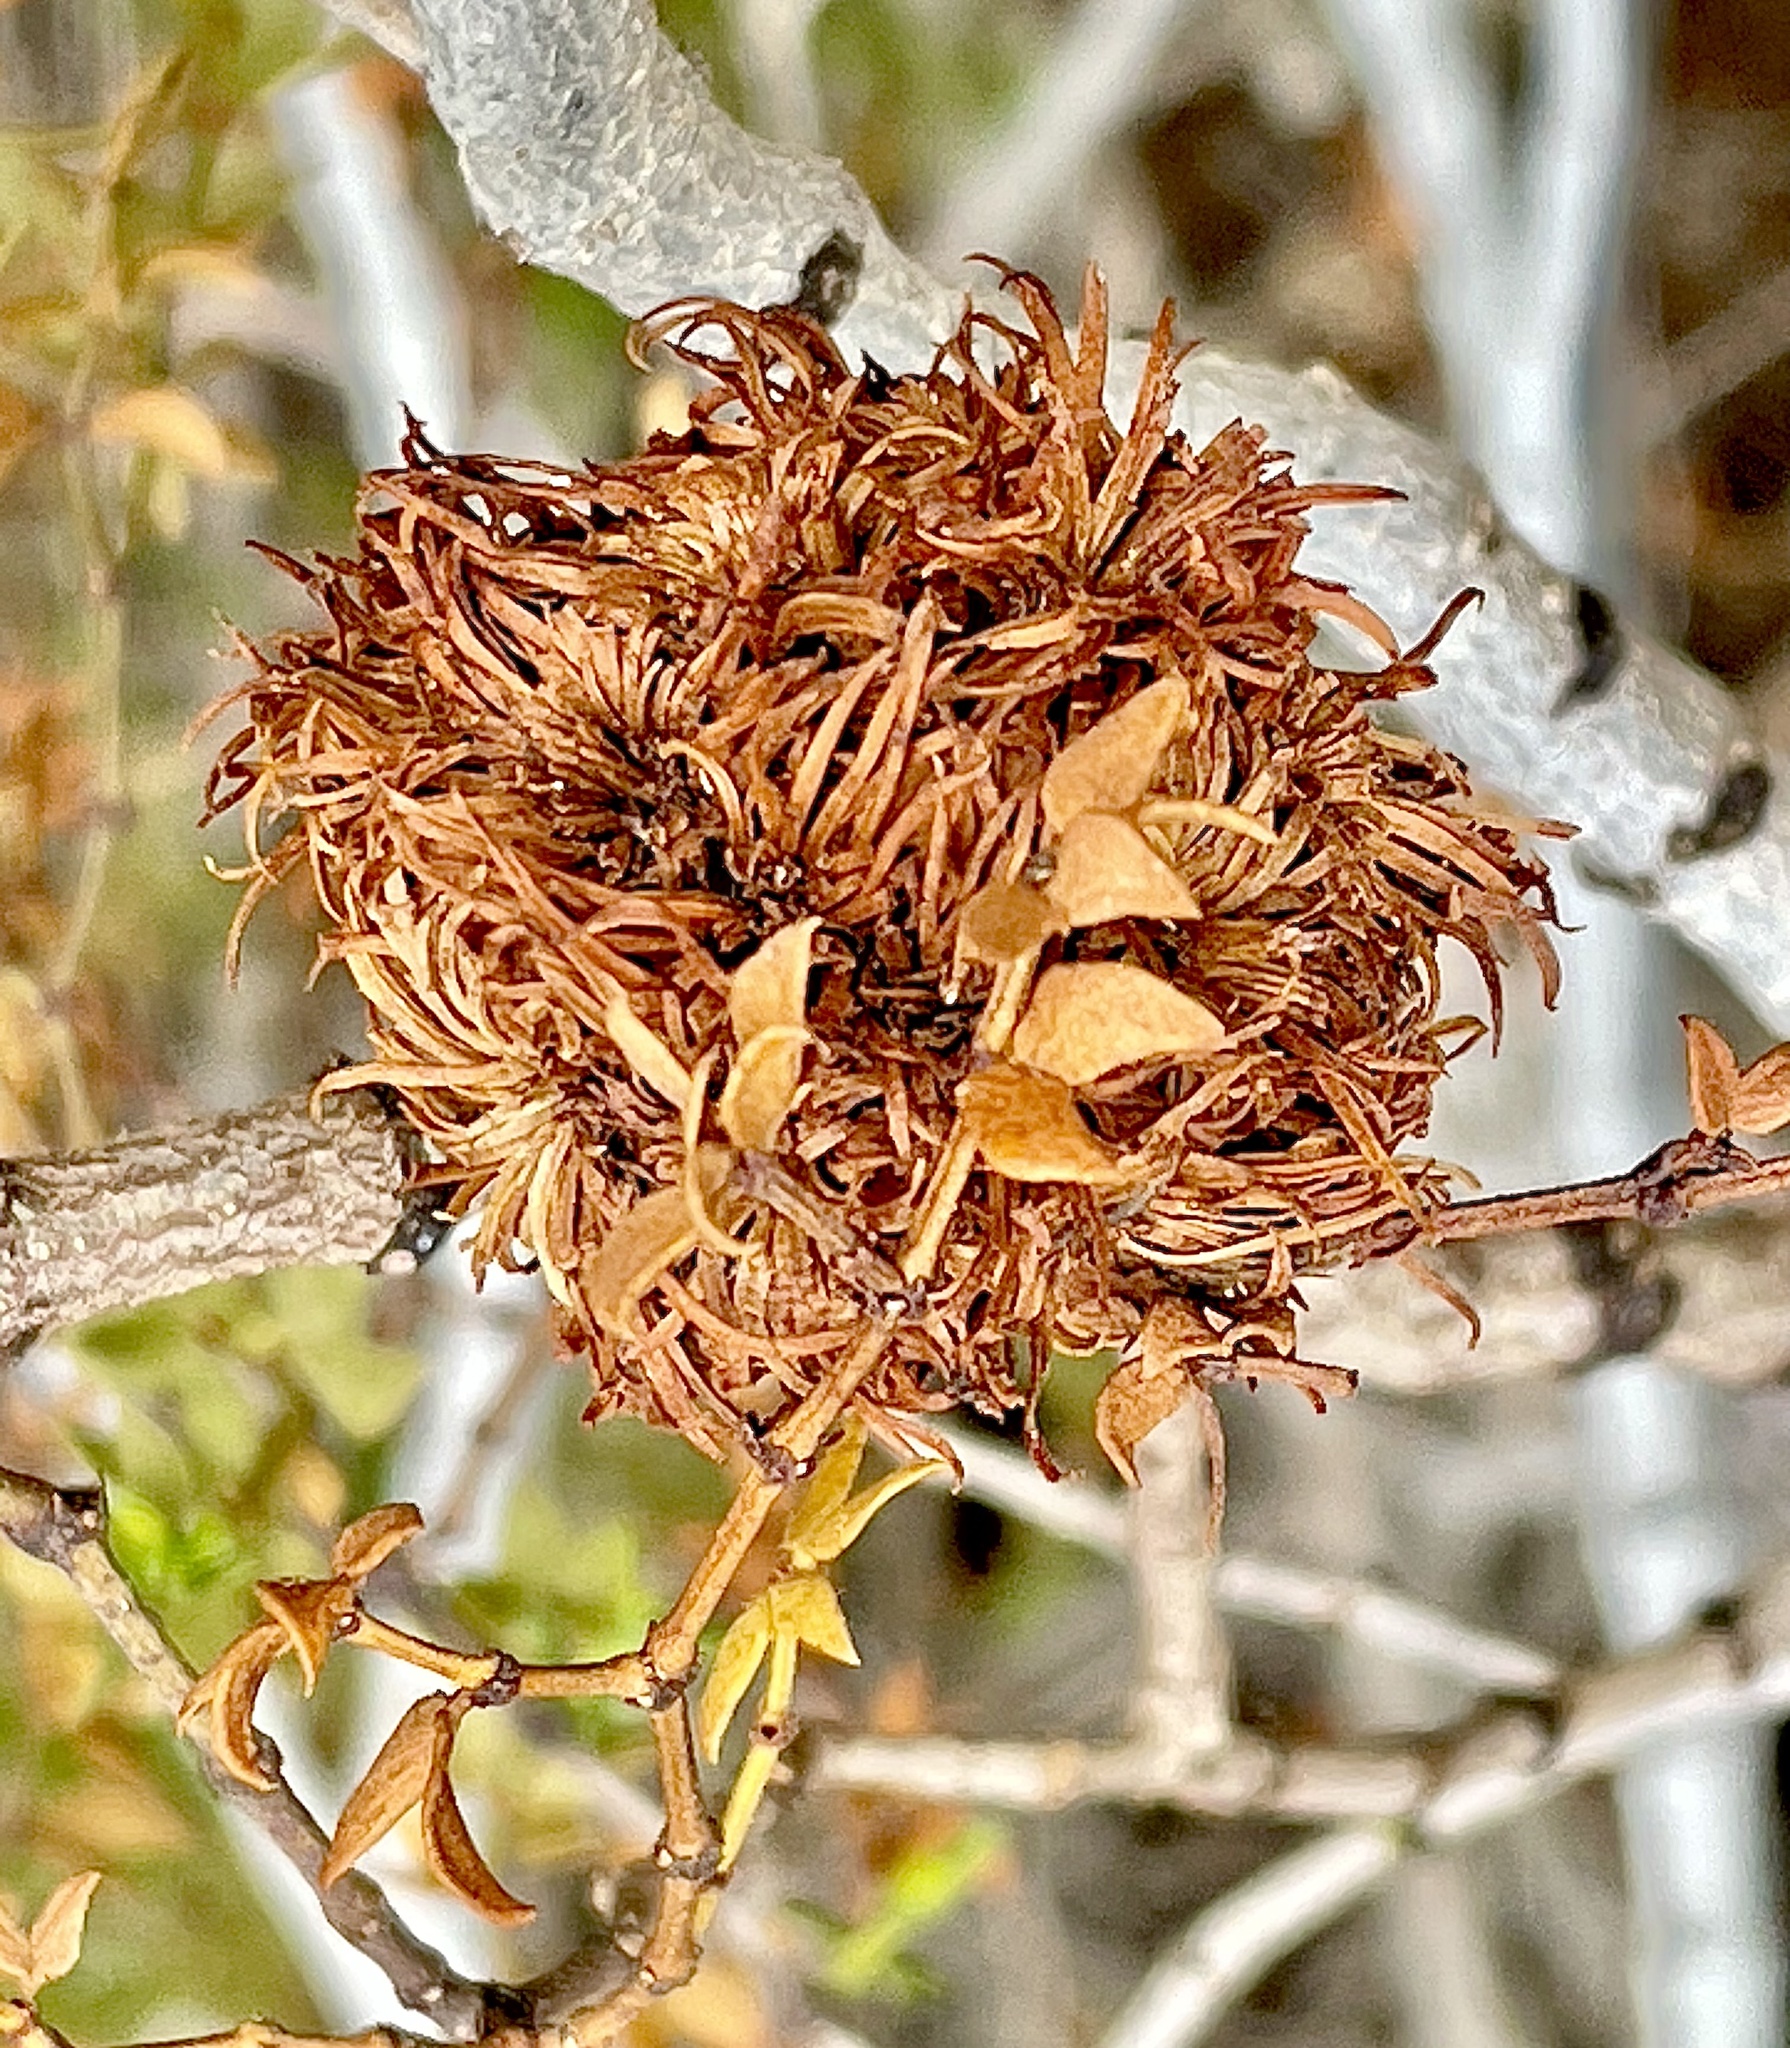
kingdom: Animalia
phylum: Arthropoda
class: Insecta
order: Diptera
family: Cecidomyiidae
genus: Asphondylia
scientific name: Asphondylia auripila
